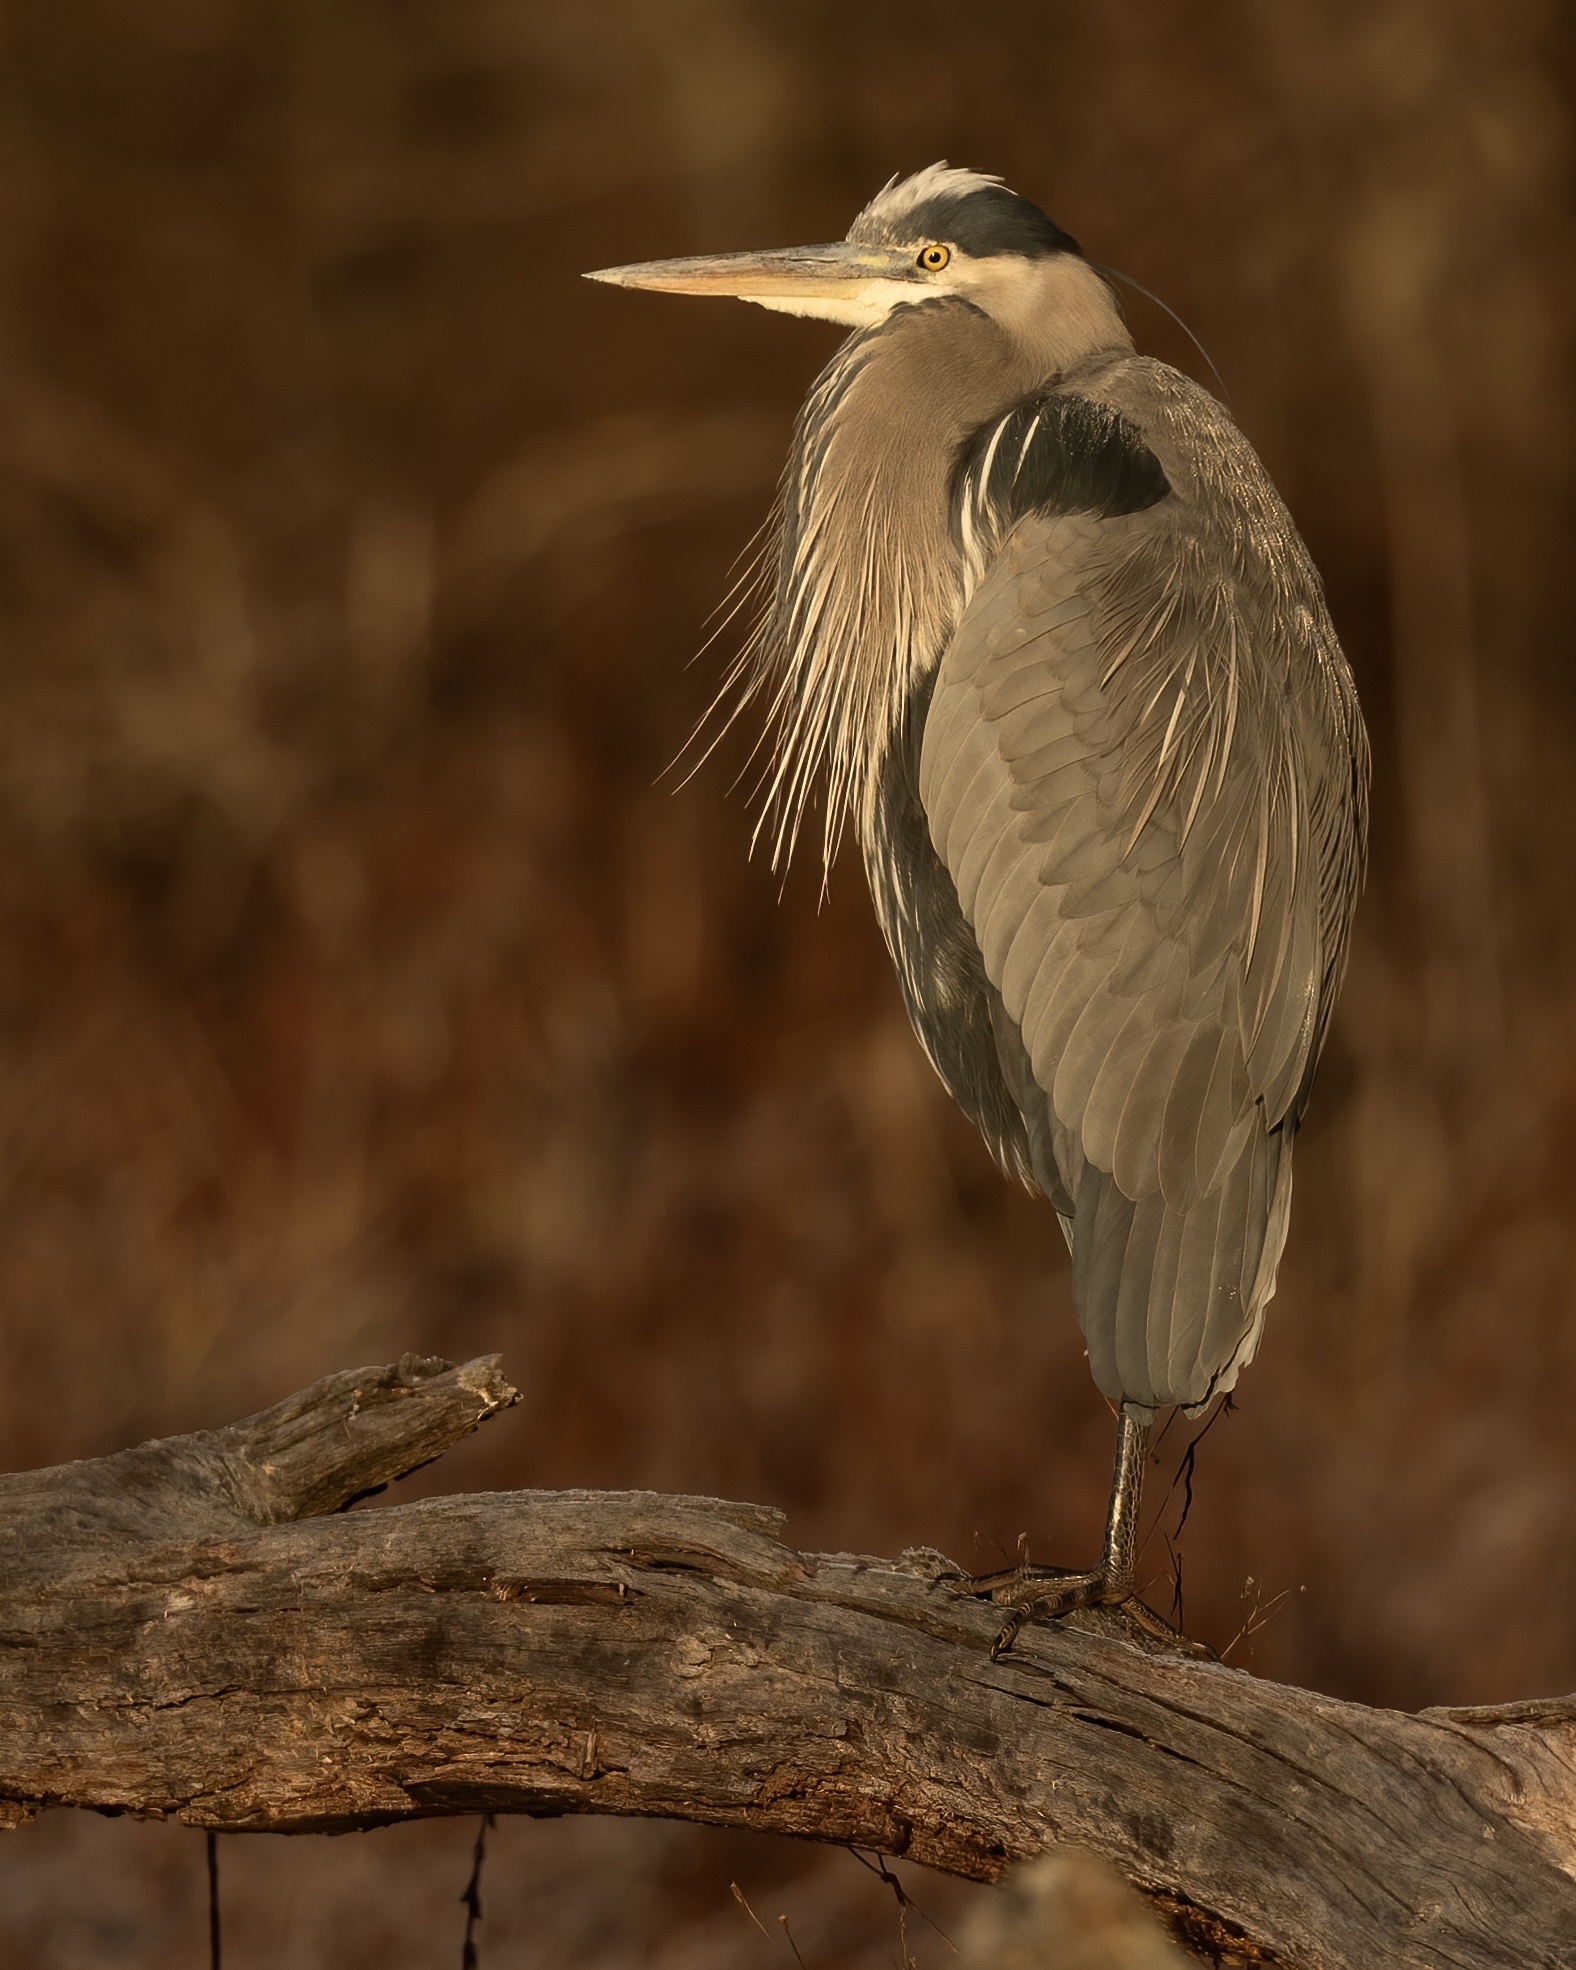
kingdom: Animalia
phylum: Chordata
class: Aves
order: Pelecaniformes
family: Ardeidae
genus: Ardea
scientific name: Ardea herodias
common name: Great blue heron
